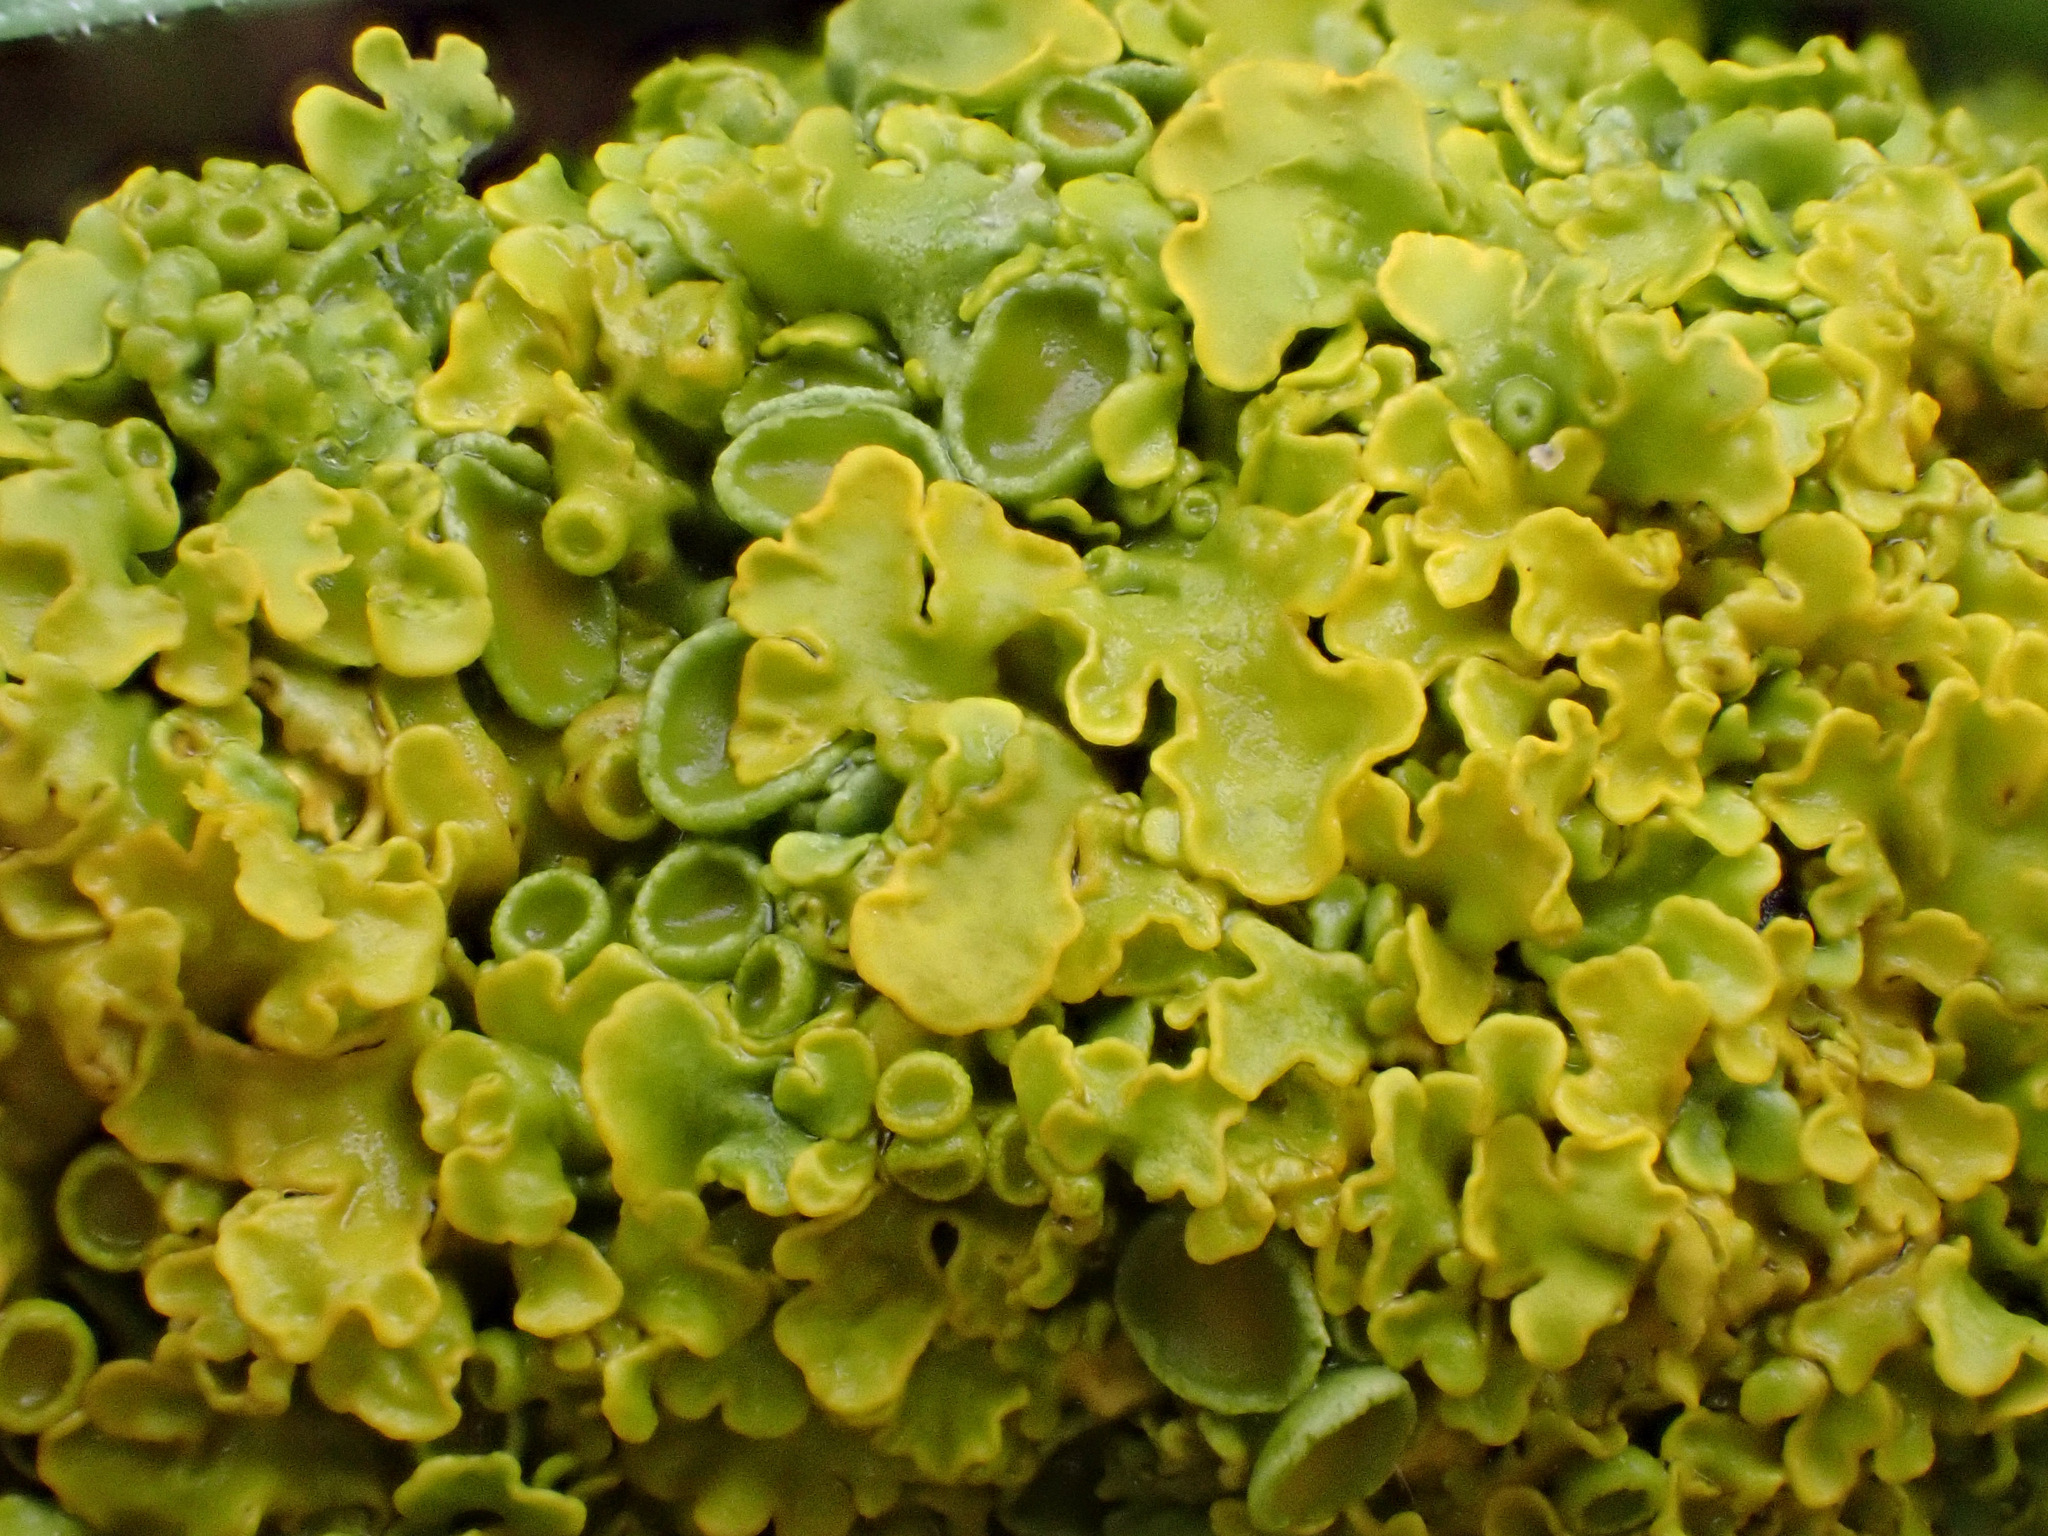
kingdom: Fungi
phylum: Ascomycota
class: Lecanoromycetes
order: Teloschistales
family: Teloschistaceae
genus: Xanthoria
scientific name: Xanthoria parietina
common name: Common orange lichen
